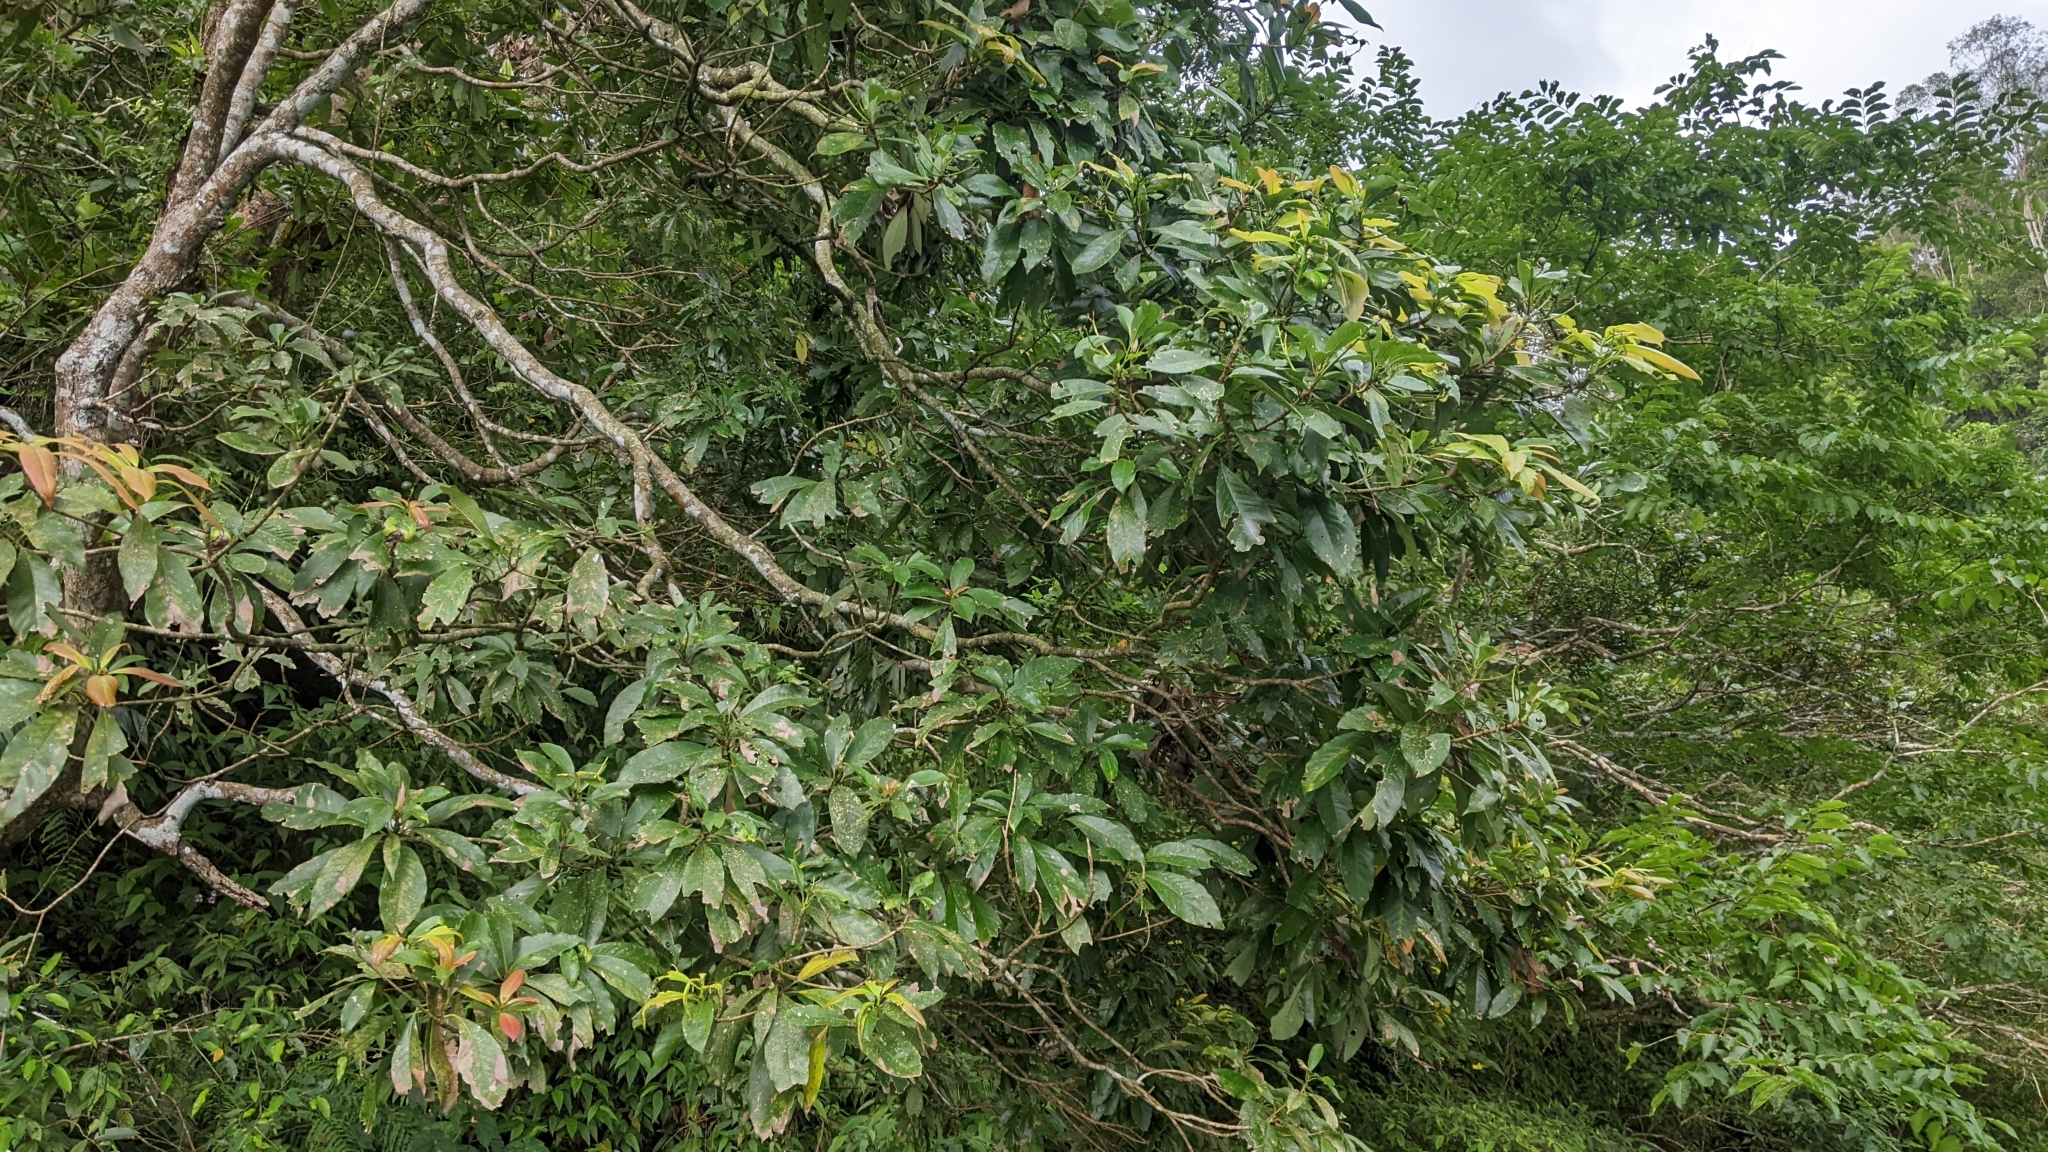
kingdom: Plantae
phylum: Tracheophyta
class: Magnoliopsida
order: Laurales
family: Lauraceae
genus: Machilus
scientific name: Machilus japonica
